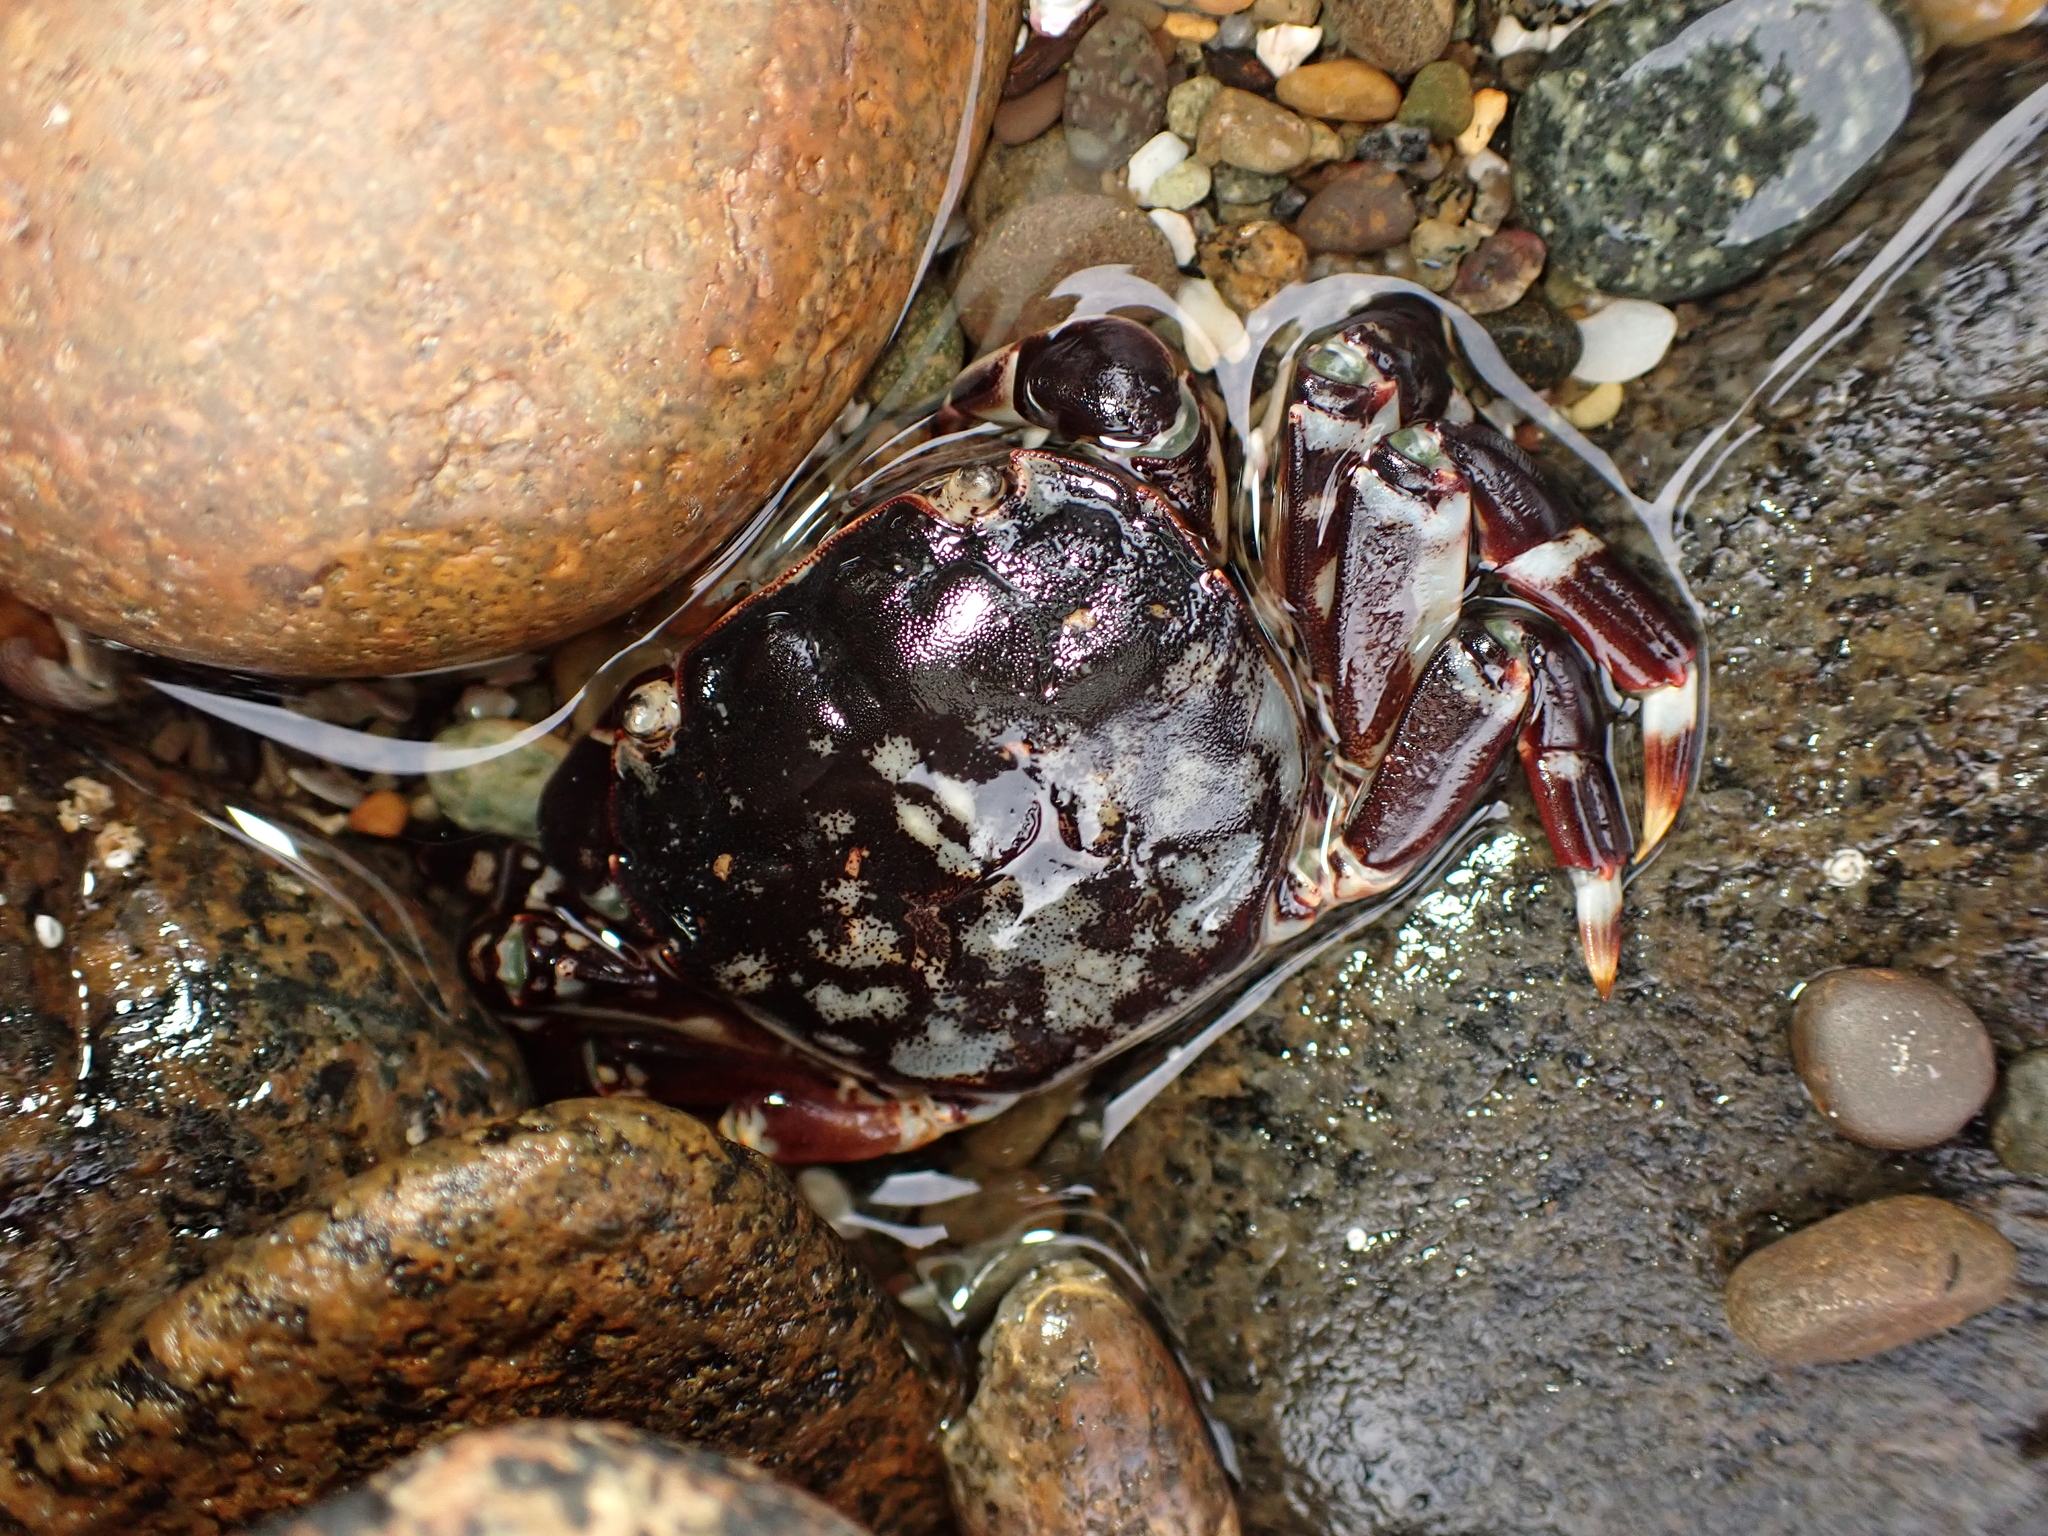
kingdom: Animalia
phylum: Arthropoda
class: Malacostraca
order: Decapoda
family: Varunidae
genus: Hemigrapsus
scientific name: Hemigrapsus sexdentatus
